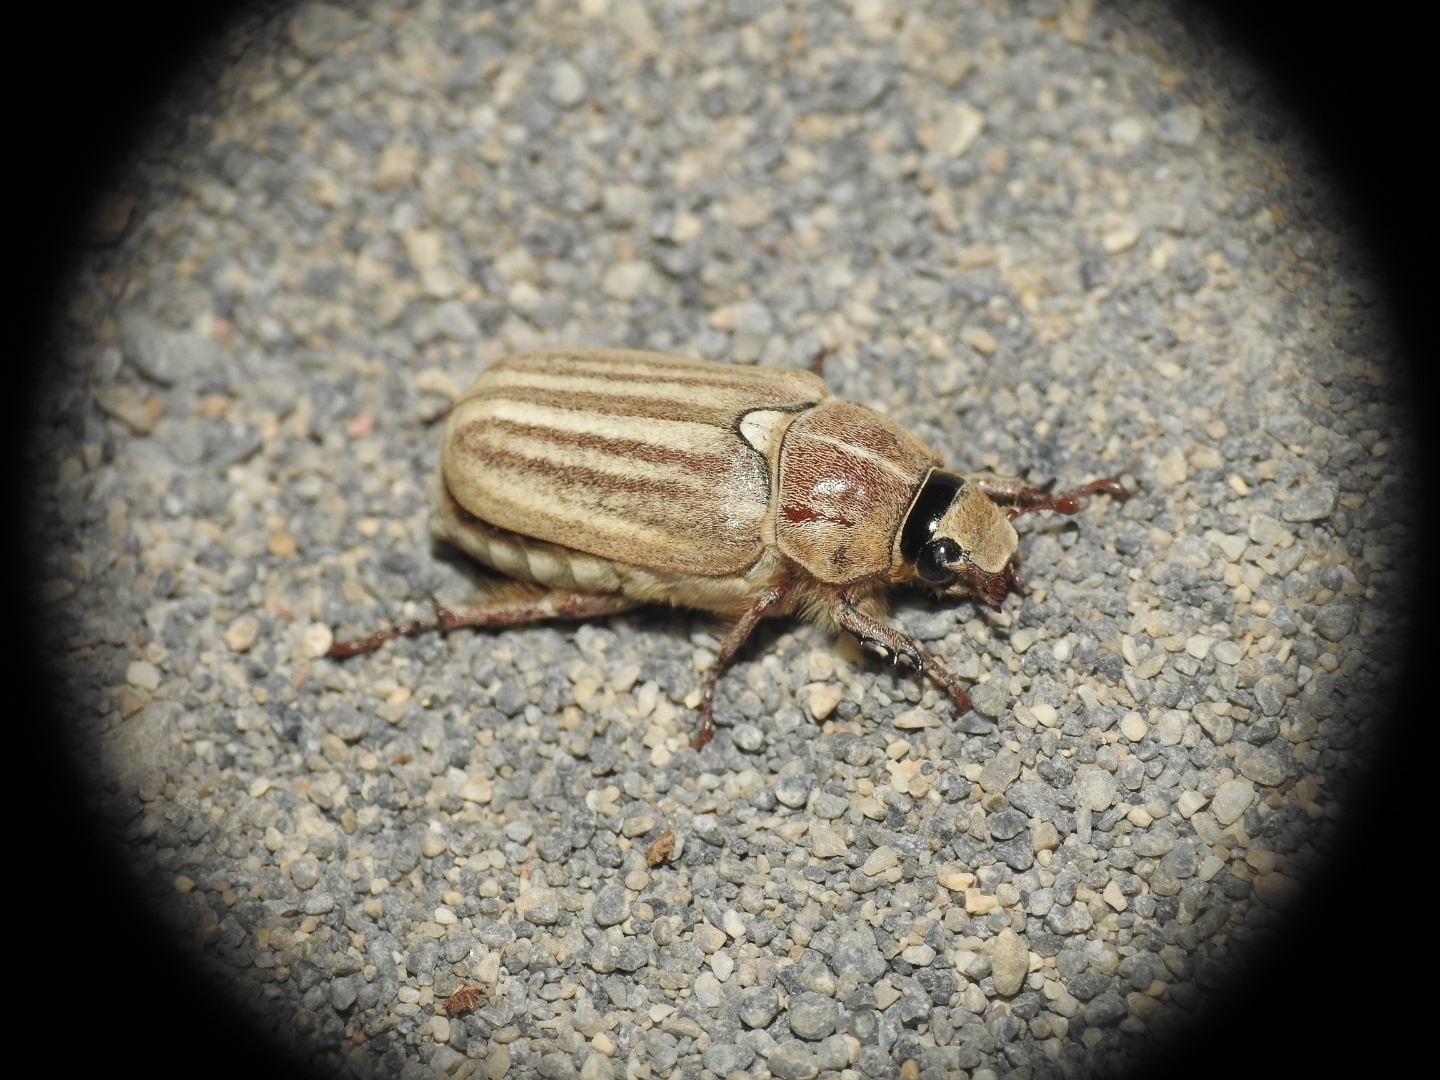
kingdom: Animalia
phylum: Arthropoda
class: Insecta
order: Coleoptera
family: Scarabaeidae
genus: Anoxia
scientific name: Anoxia reisseri
